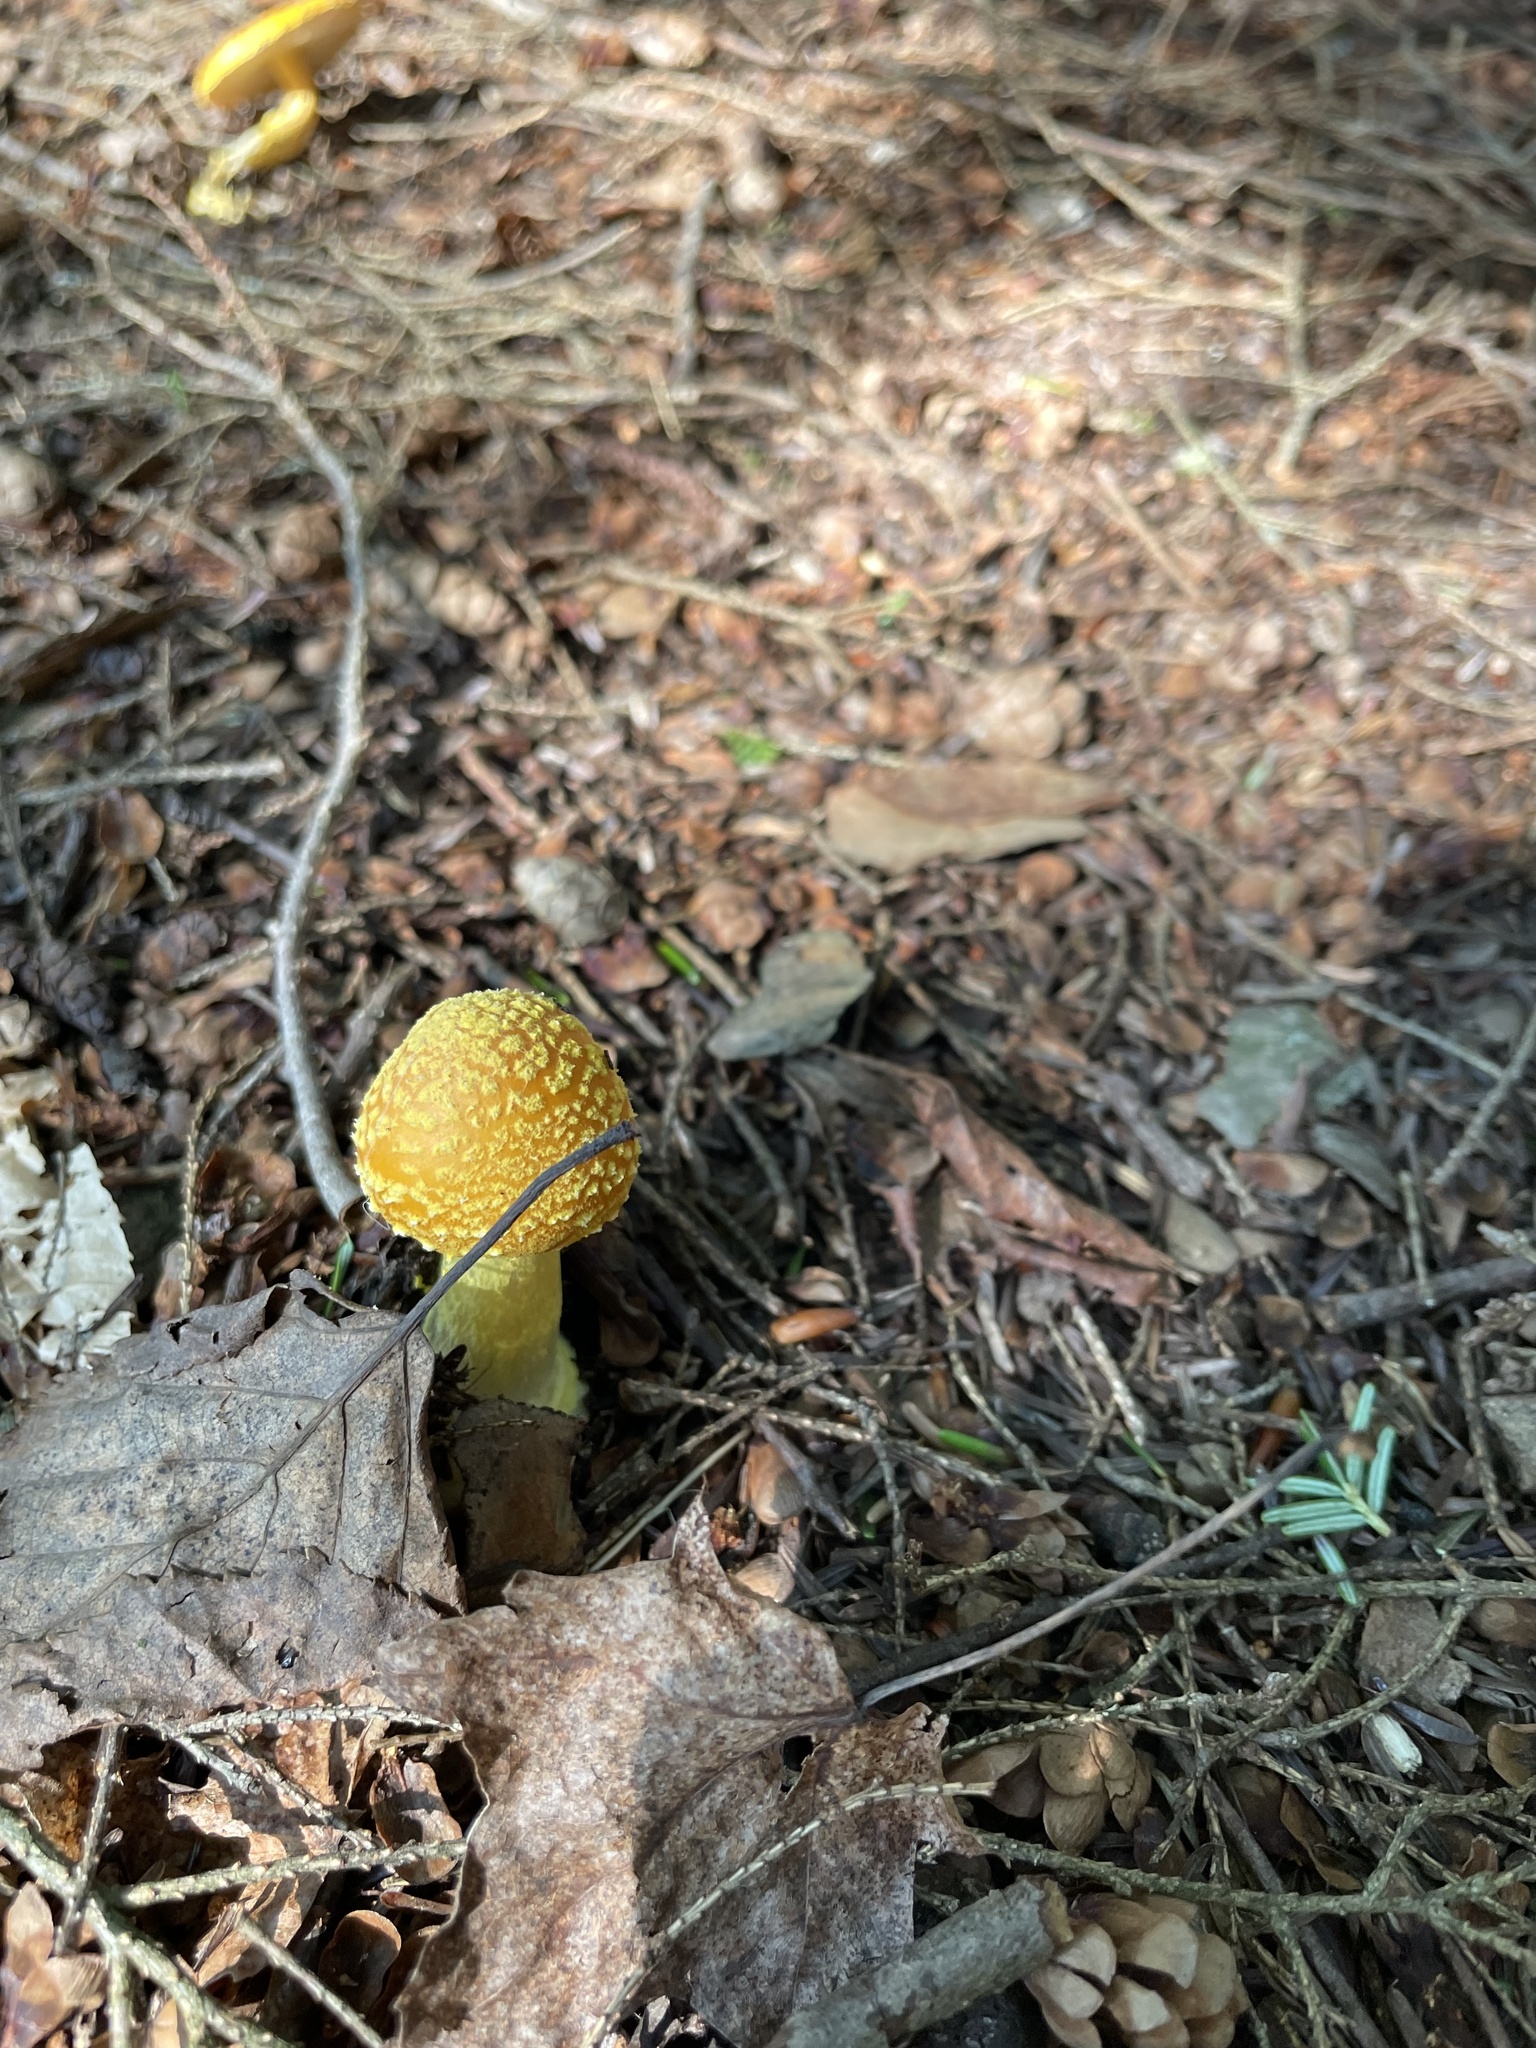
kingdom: Fungi
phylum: Basidiomycota
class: Agaricomycetes
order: Agaricales
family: Amanitaceae
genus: Amanita
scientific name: Amanita flavoconia
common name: Yellow patches
